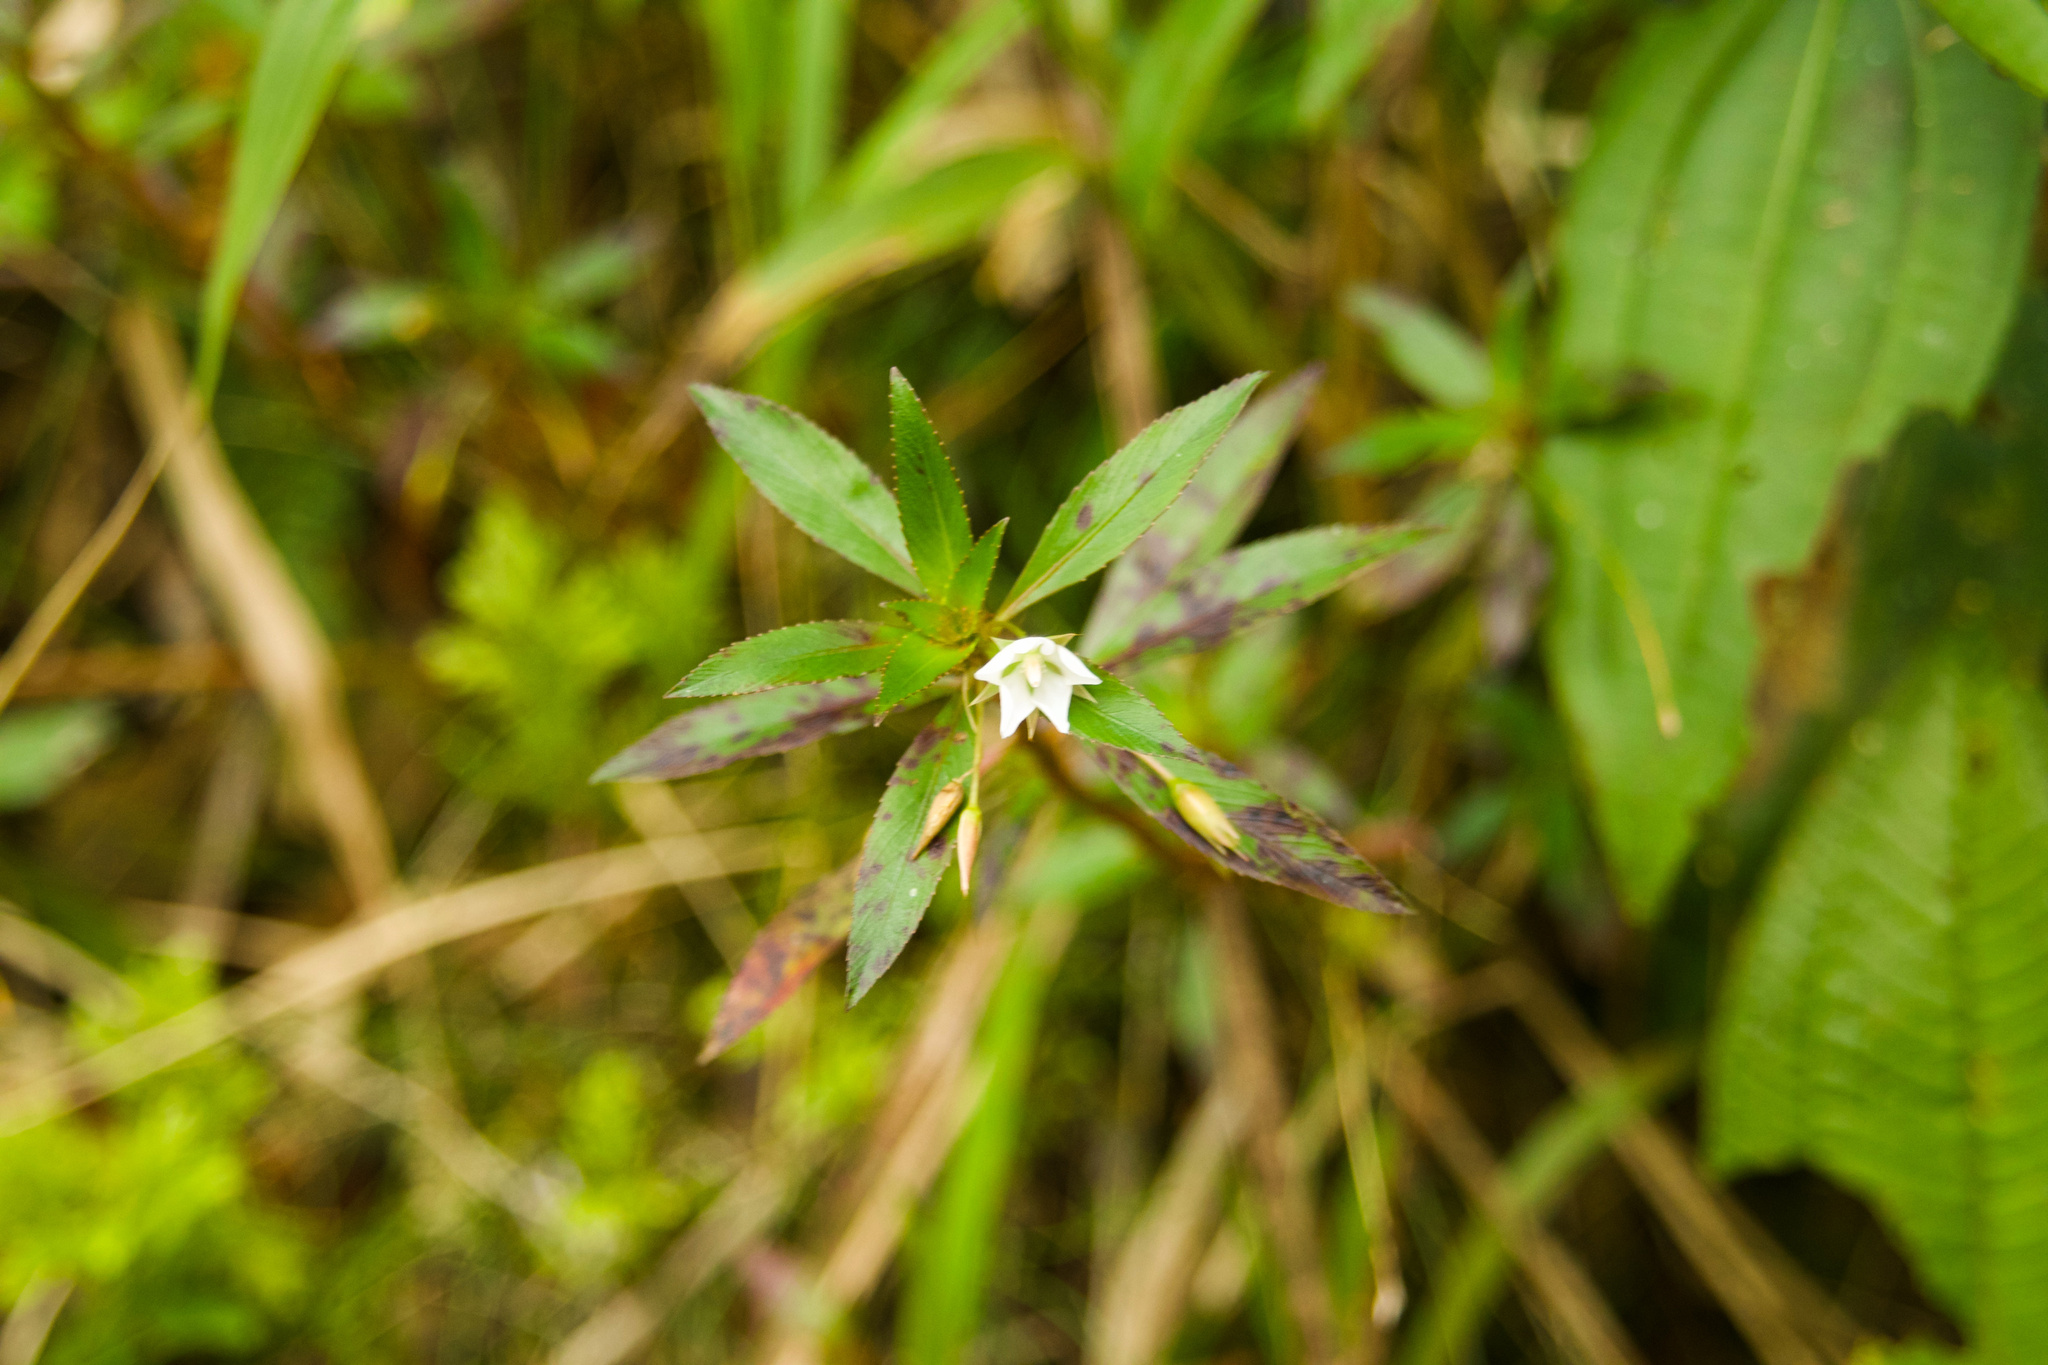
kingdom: Plantae
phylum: Tracheophyta
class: Magnoliopsida
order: Malpighiales
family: Ochnaceae
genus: Sauvagesia
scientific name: Sauvagesia erecta
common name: Creole tea
